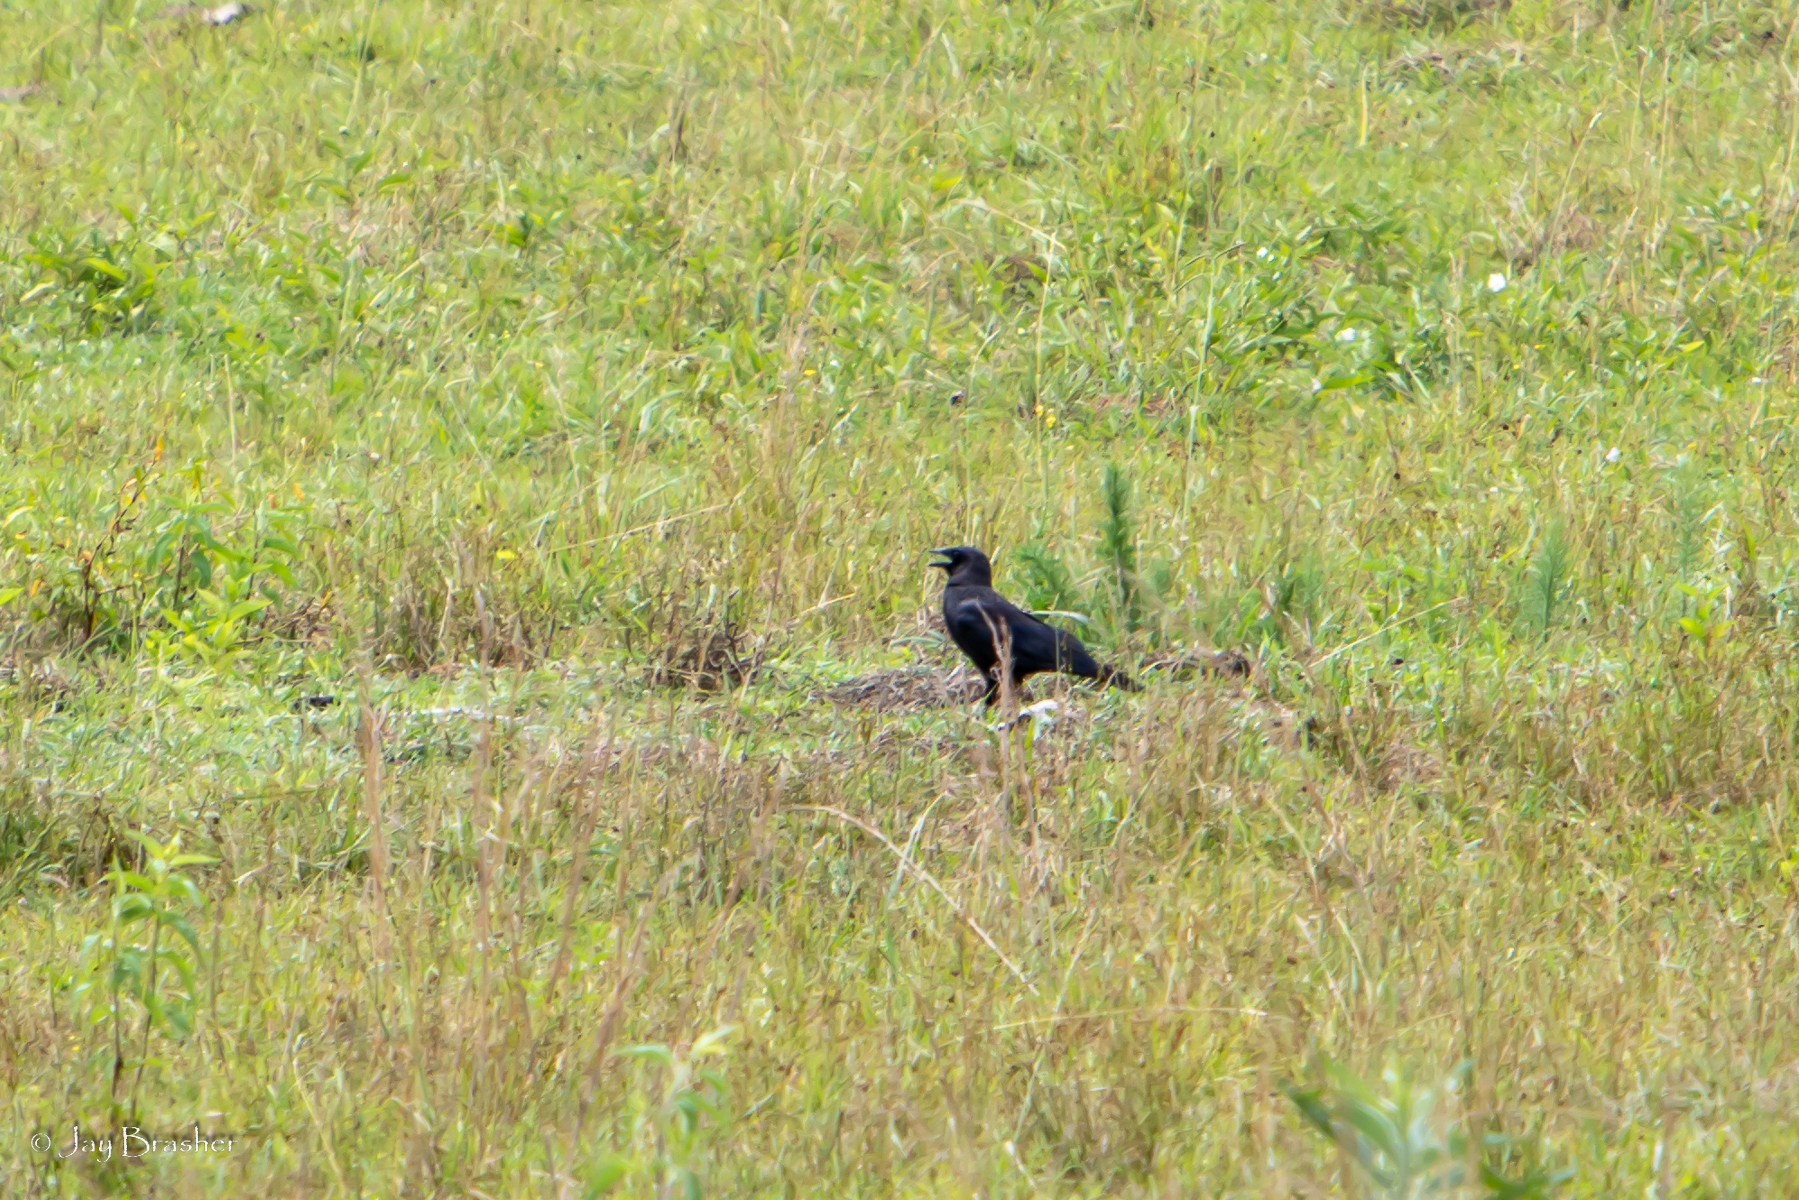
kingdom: Animalia
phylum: Chordata
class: Aves
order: Passeriformes
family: Corvidae
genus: Corvus
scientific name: Corvus brachyrhynchos
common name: American crow
